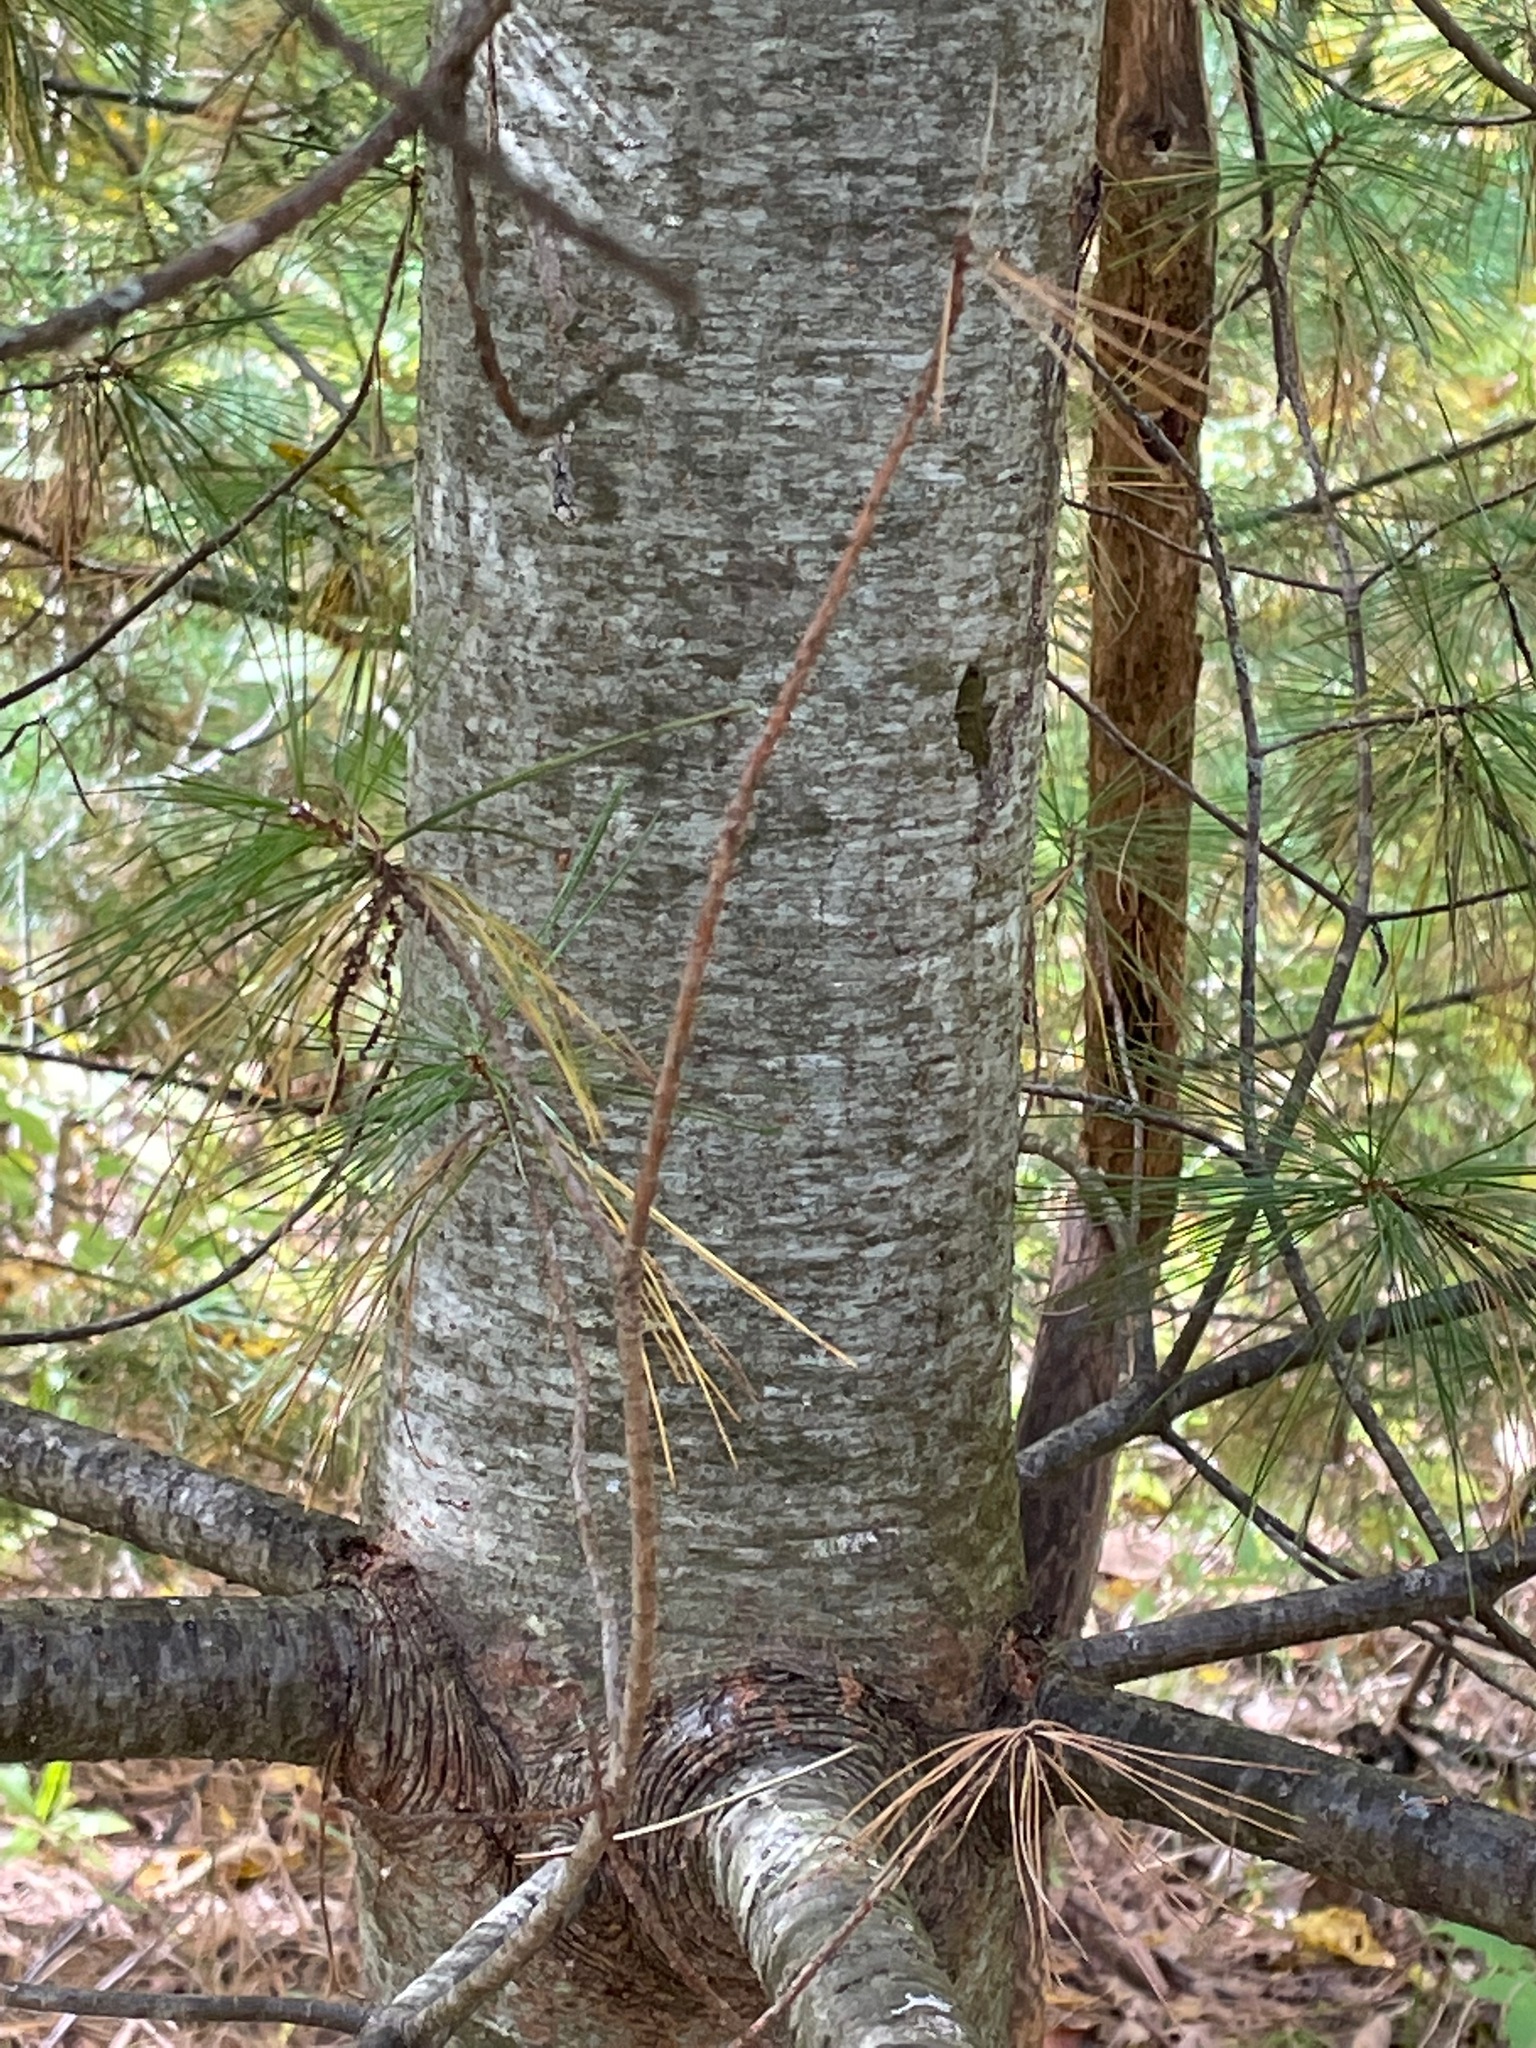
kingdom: Plantae
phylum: Tracheophyta
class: Pinopsida
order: Pinales
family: Pinaceae
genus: Pinus
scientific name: Pinus strobus
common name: Weymouth pine
